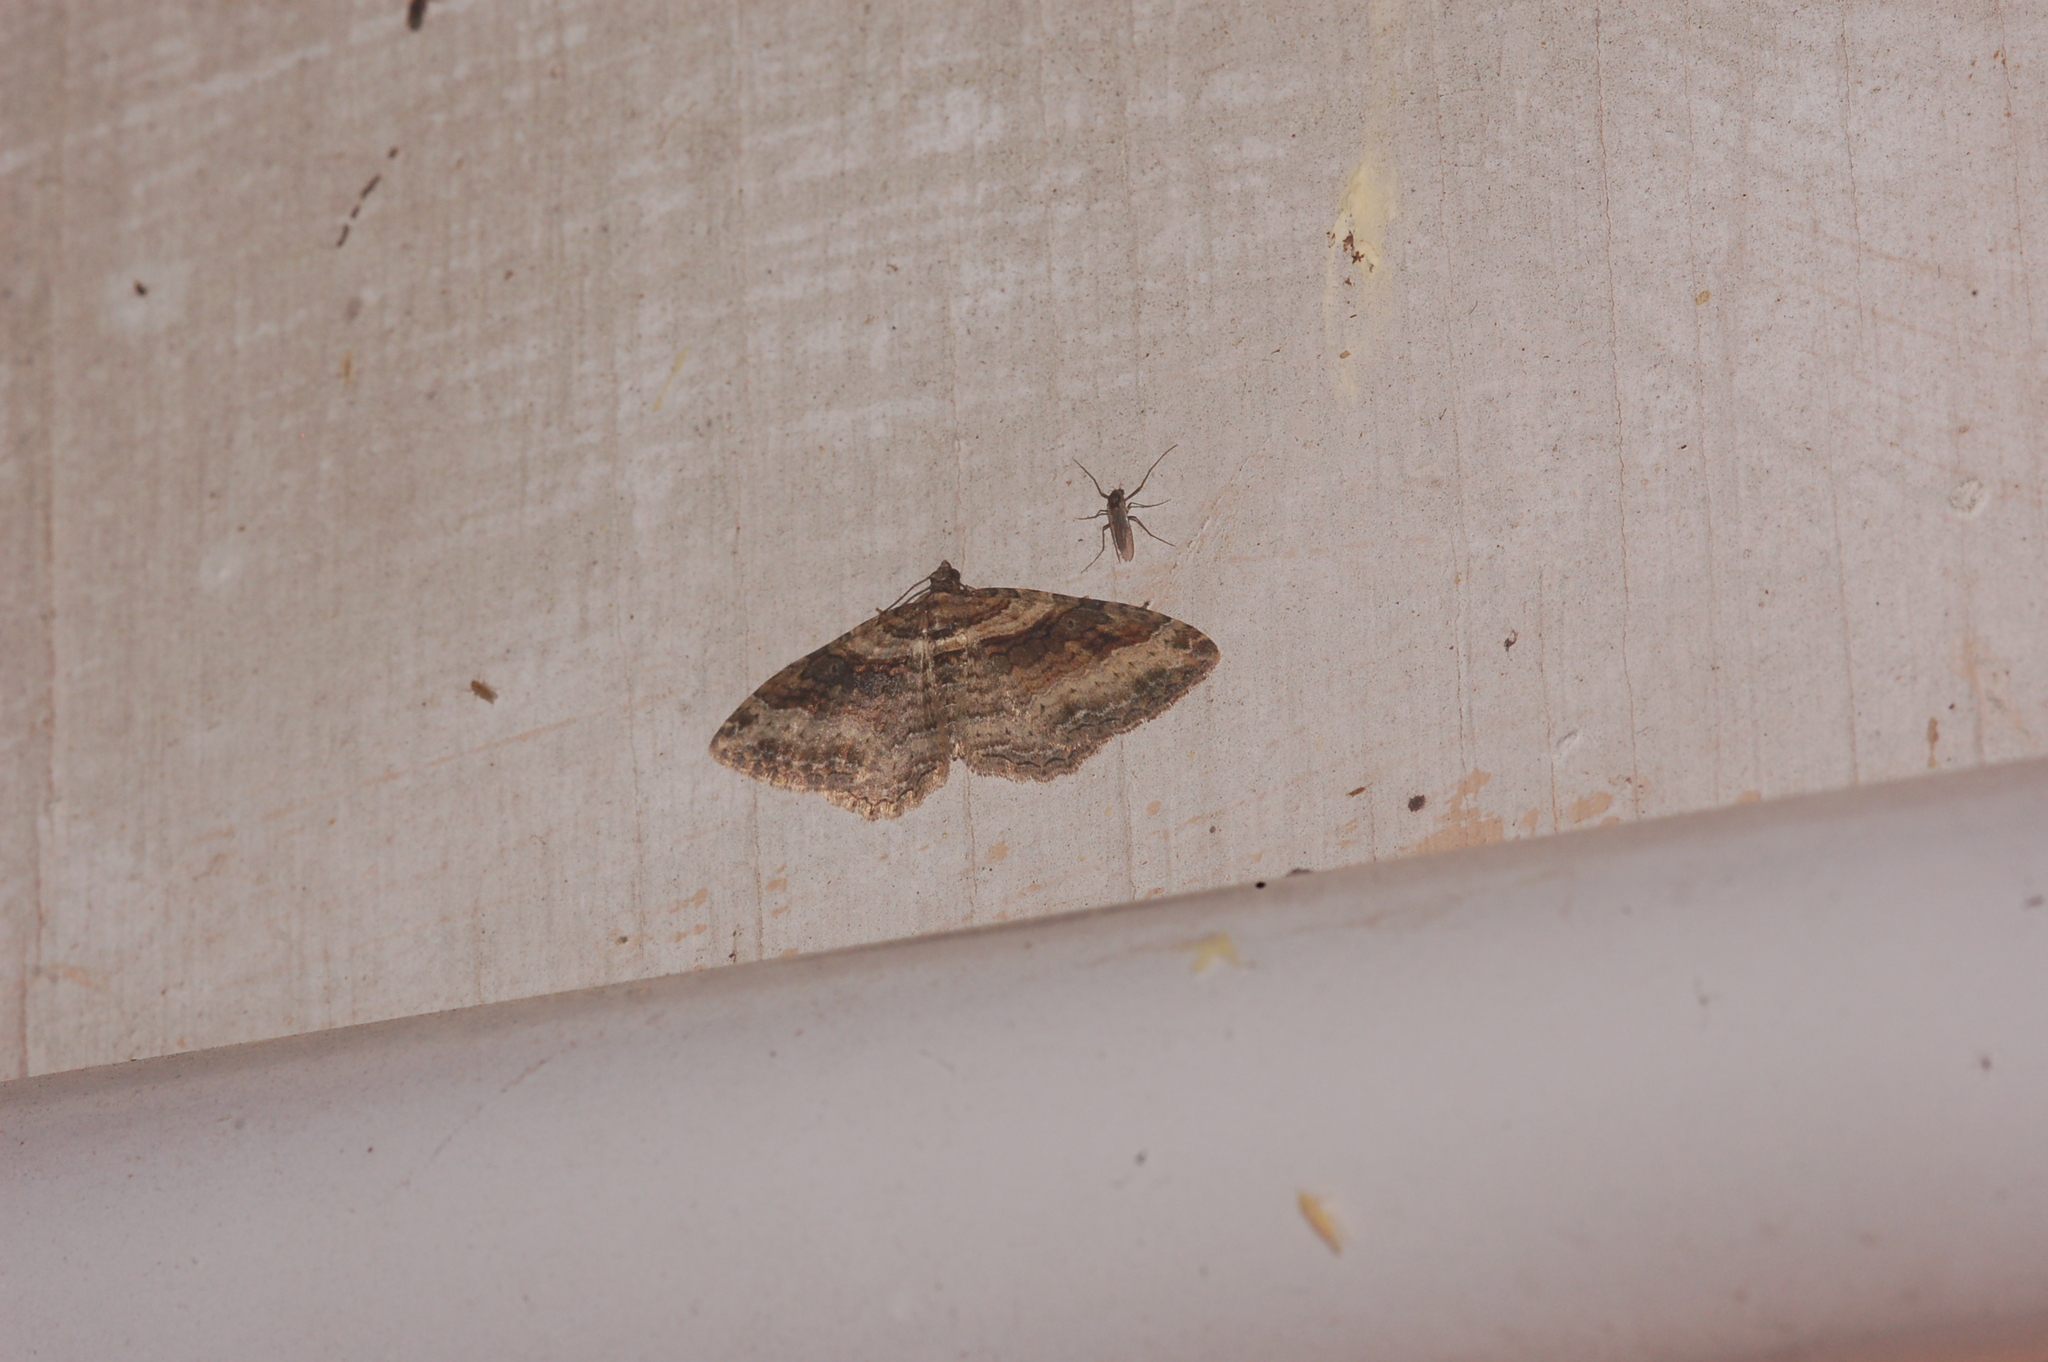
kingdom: Animalia
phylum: Arthropoda
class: Insecta
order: Lepidoptera
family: Geometridae
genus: Costaconvexa
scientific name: Costaconvexa centrostrigaria
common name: Bent-line carpet
